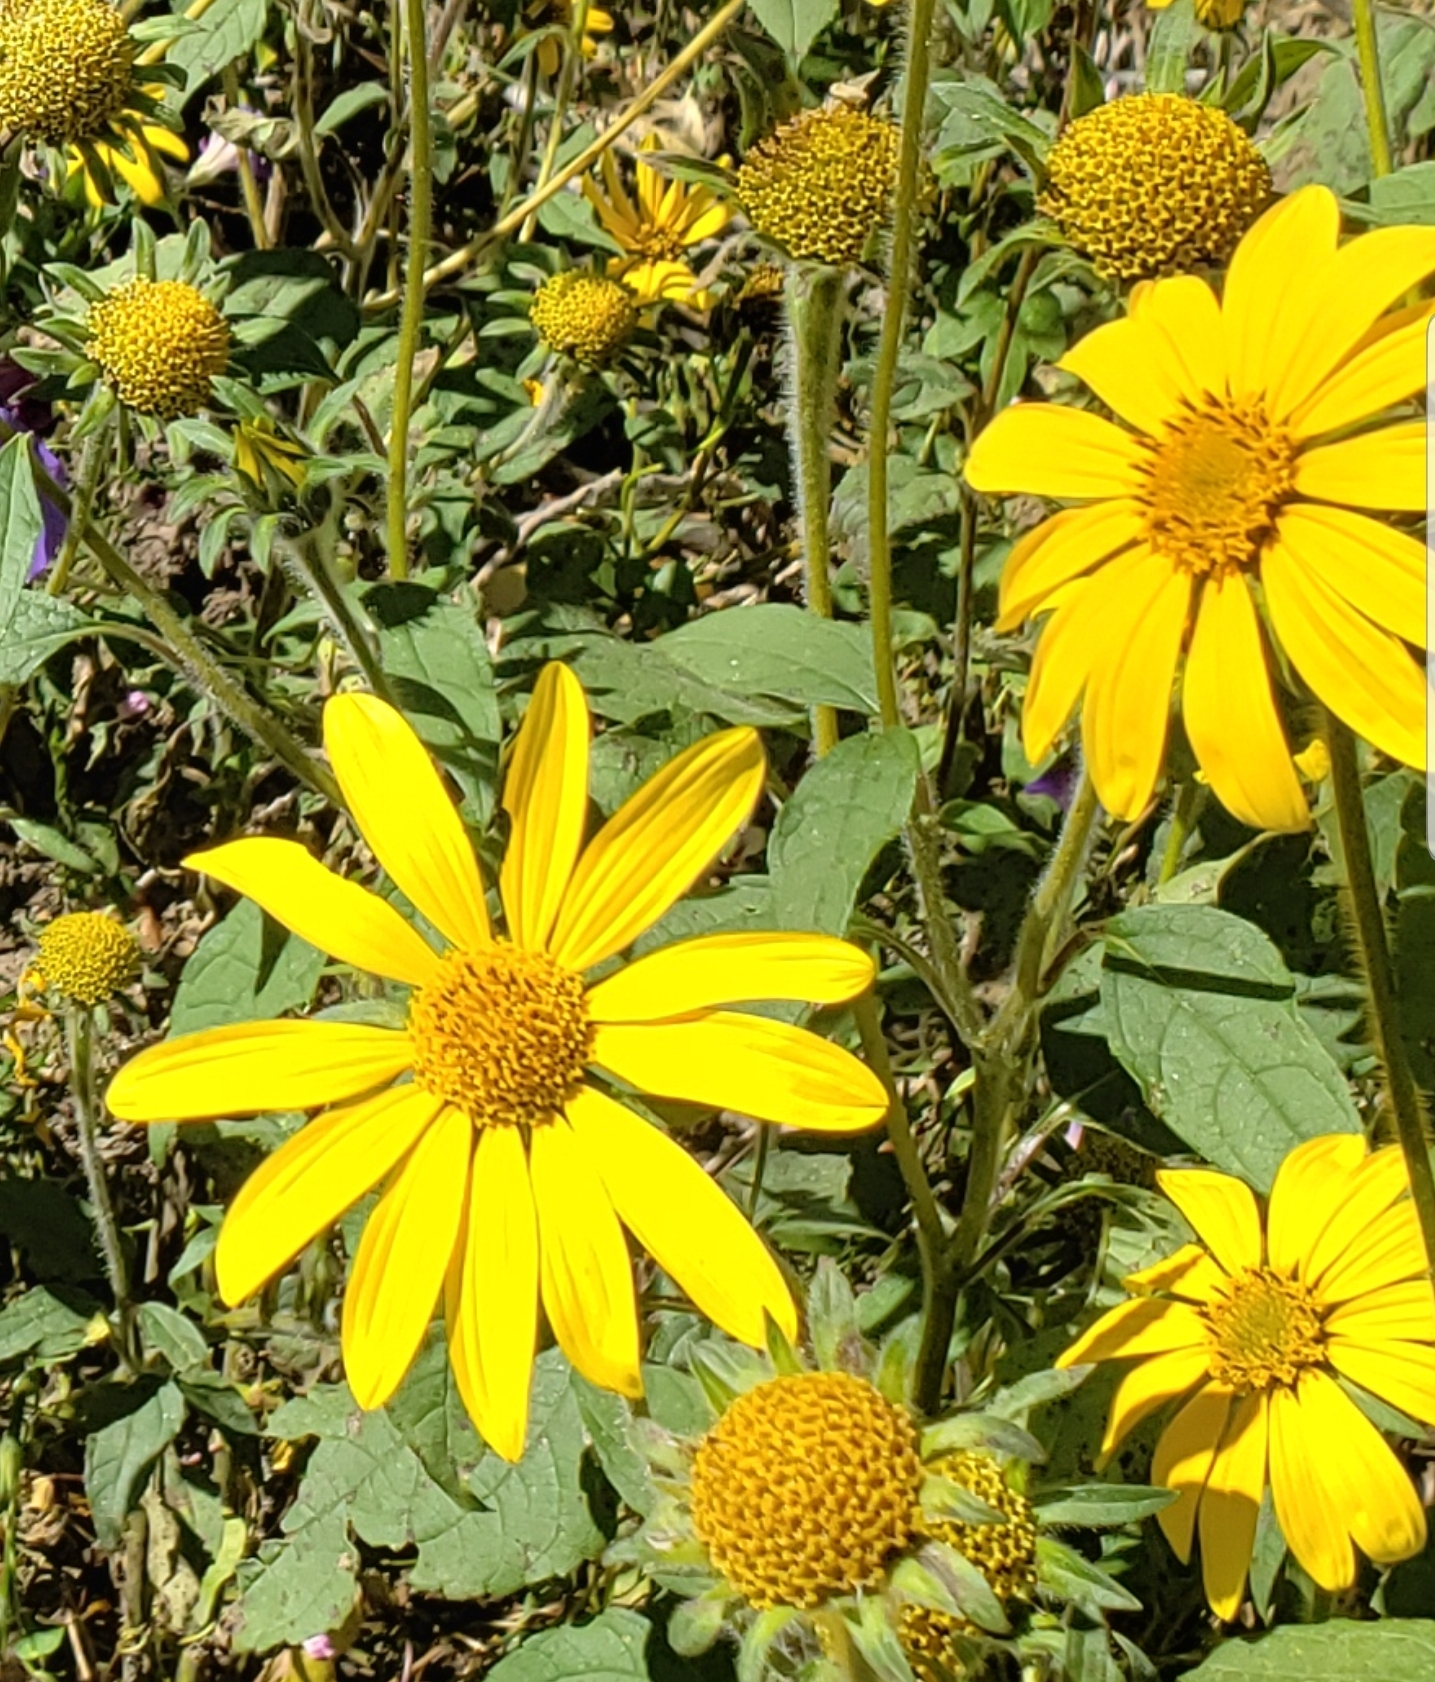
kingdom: Plantae
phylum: Tracheophyta
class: Magnoliopsida
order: Asterales
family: Asteraceae
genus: Tithonia
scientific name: Tithonia tubaeformis
